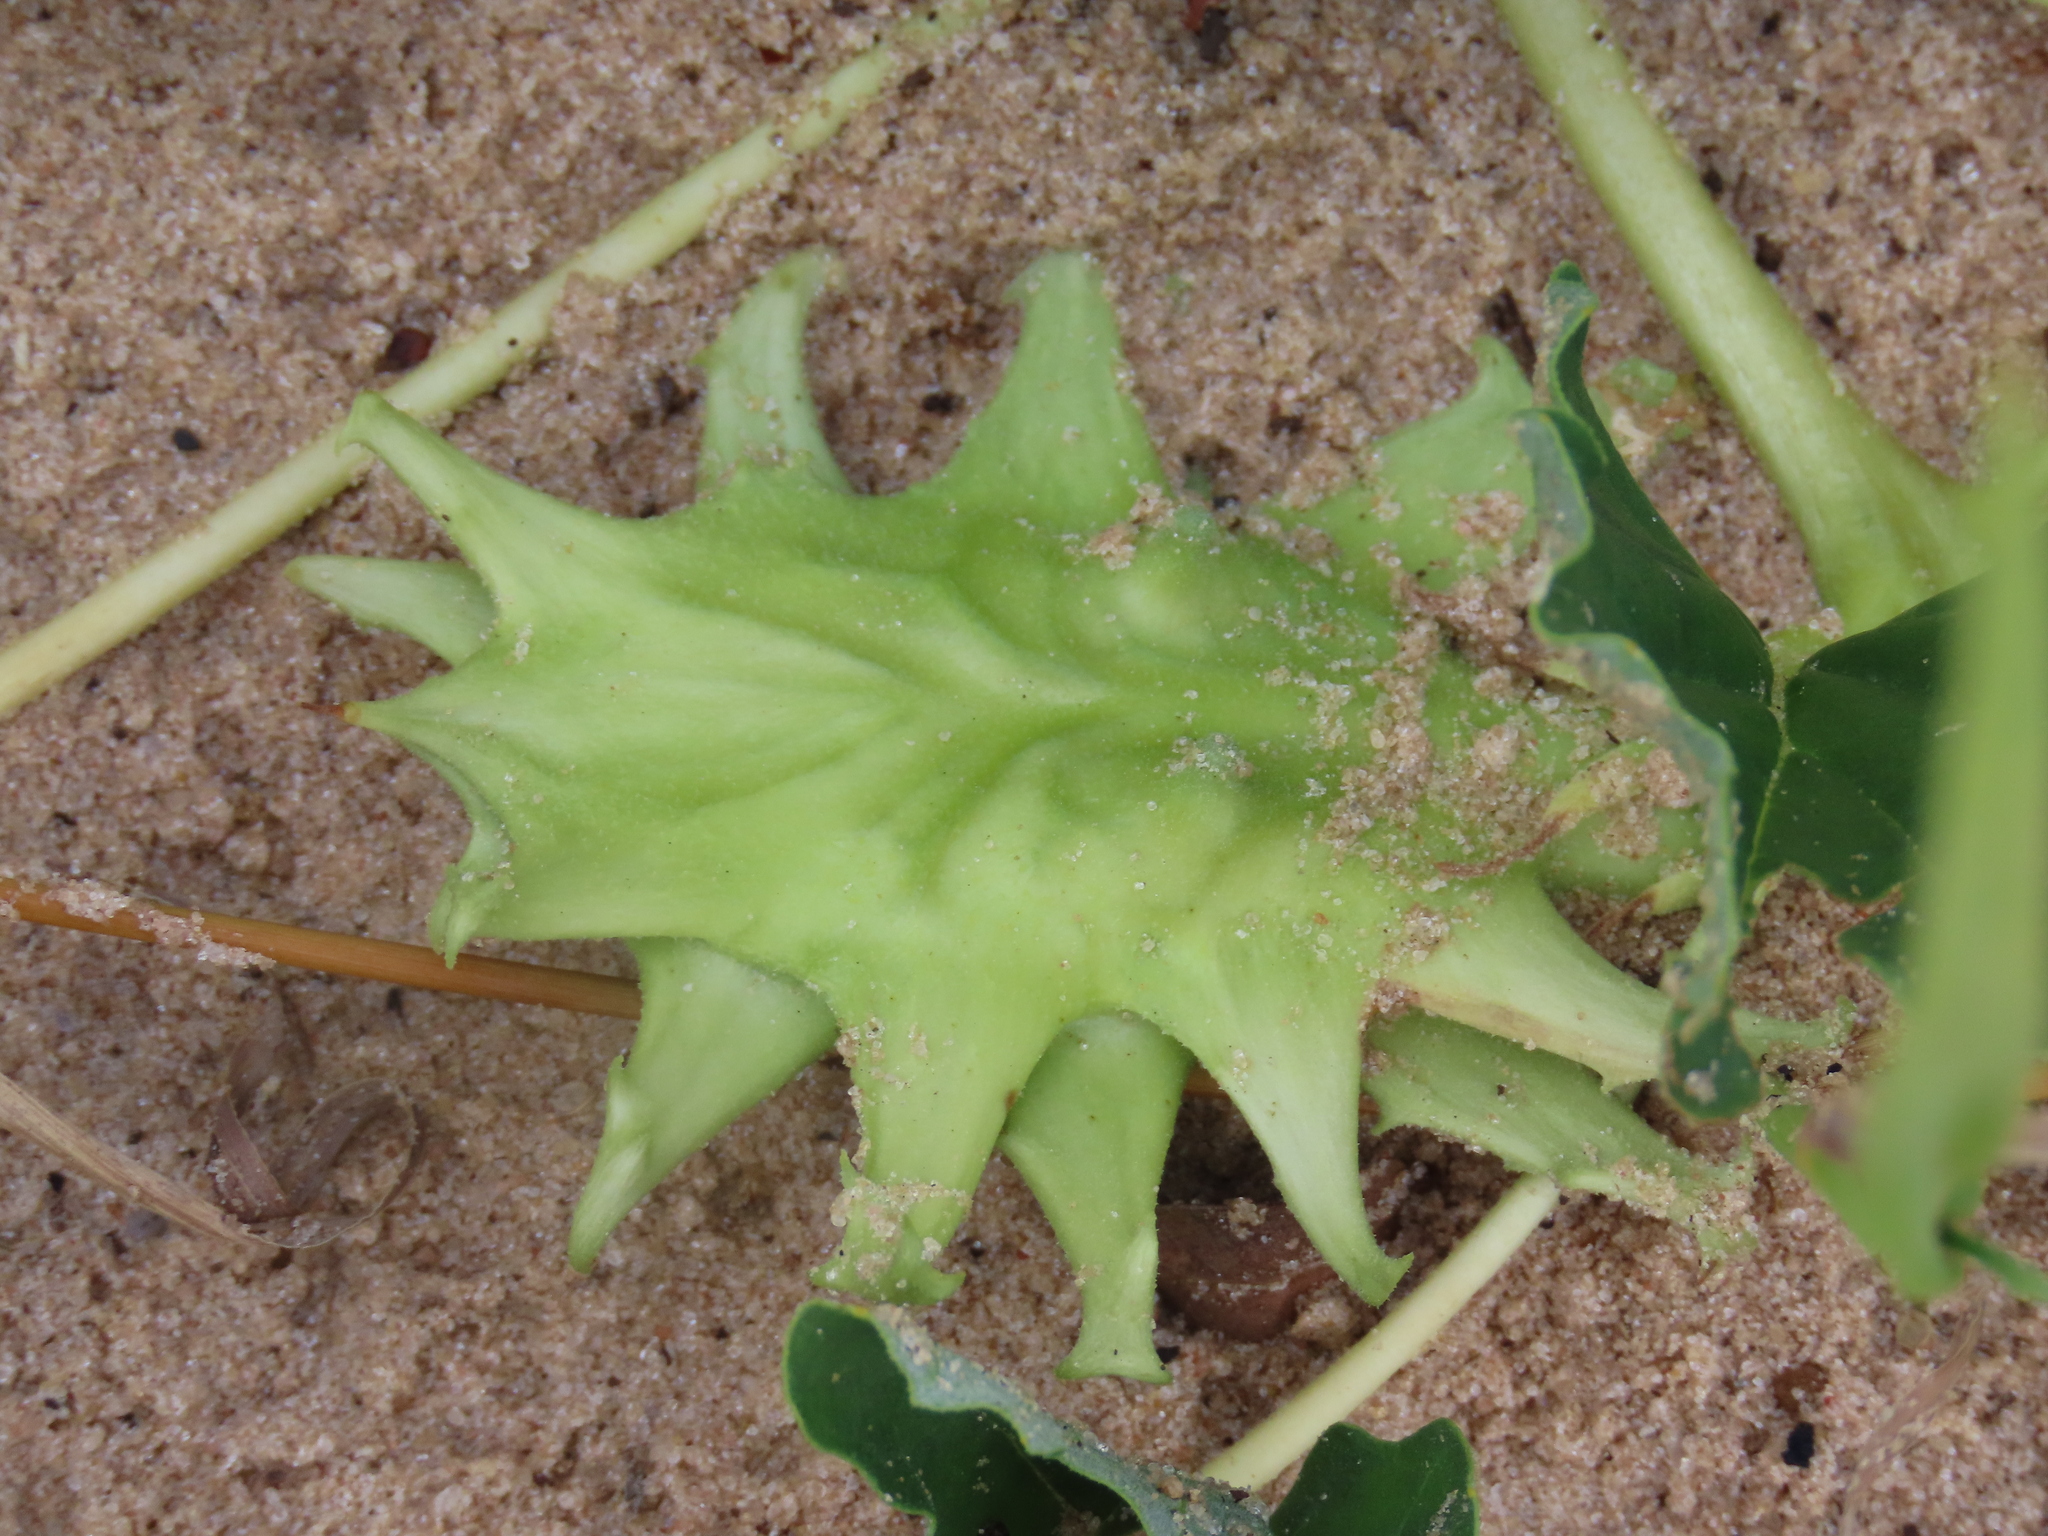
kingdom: Plantae
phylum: Tracheophyta
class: Magnoliopsida
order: Lamiales
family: Pedaliaceae
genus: Harpagophytum
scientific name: Harpagophytum zeyheri
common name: Grappleplant
